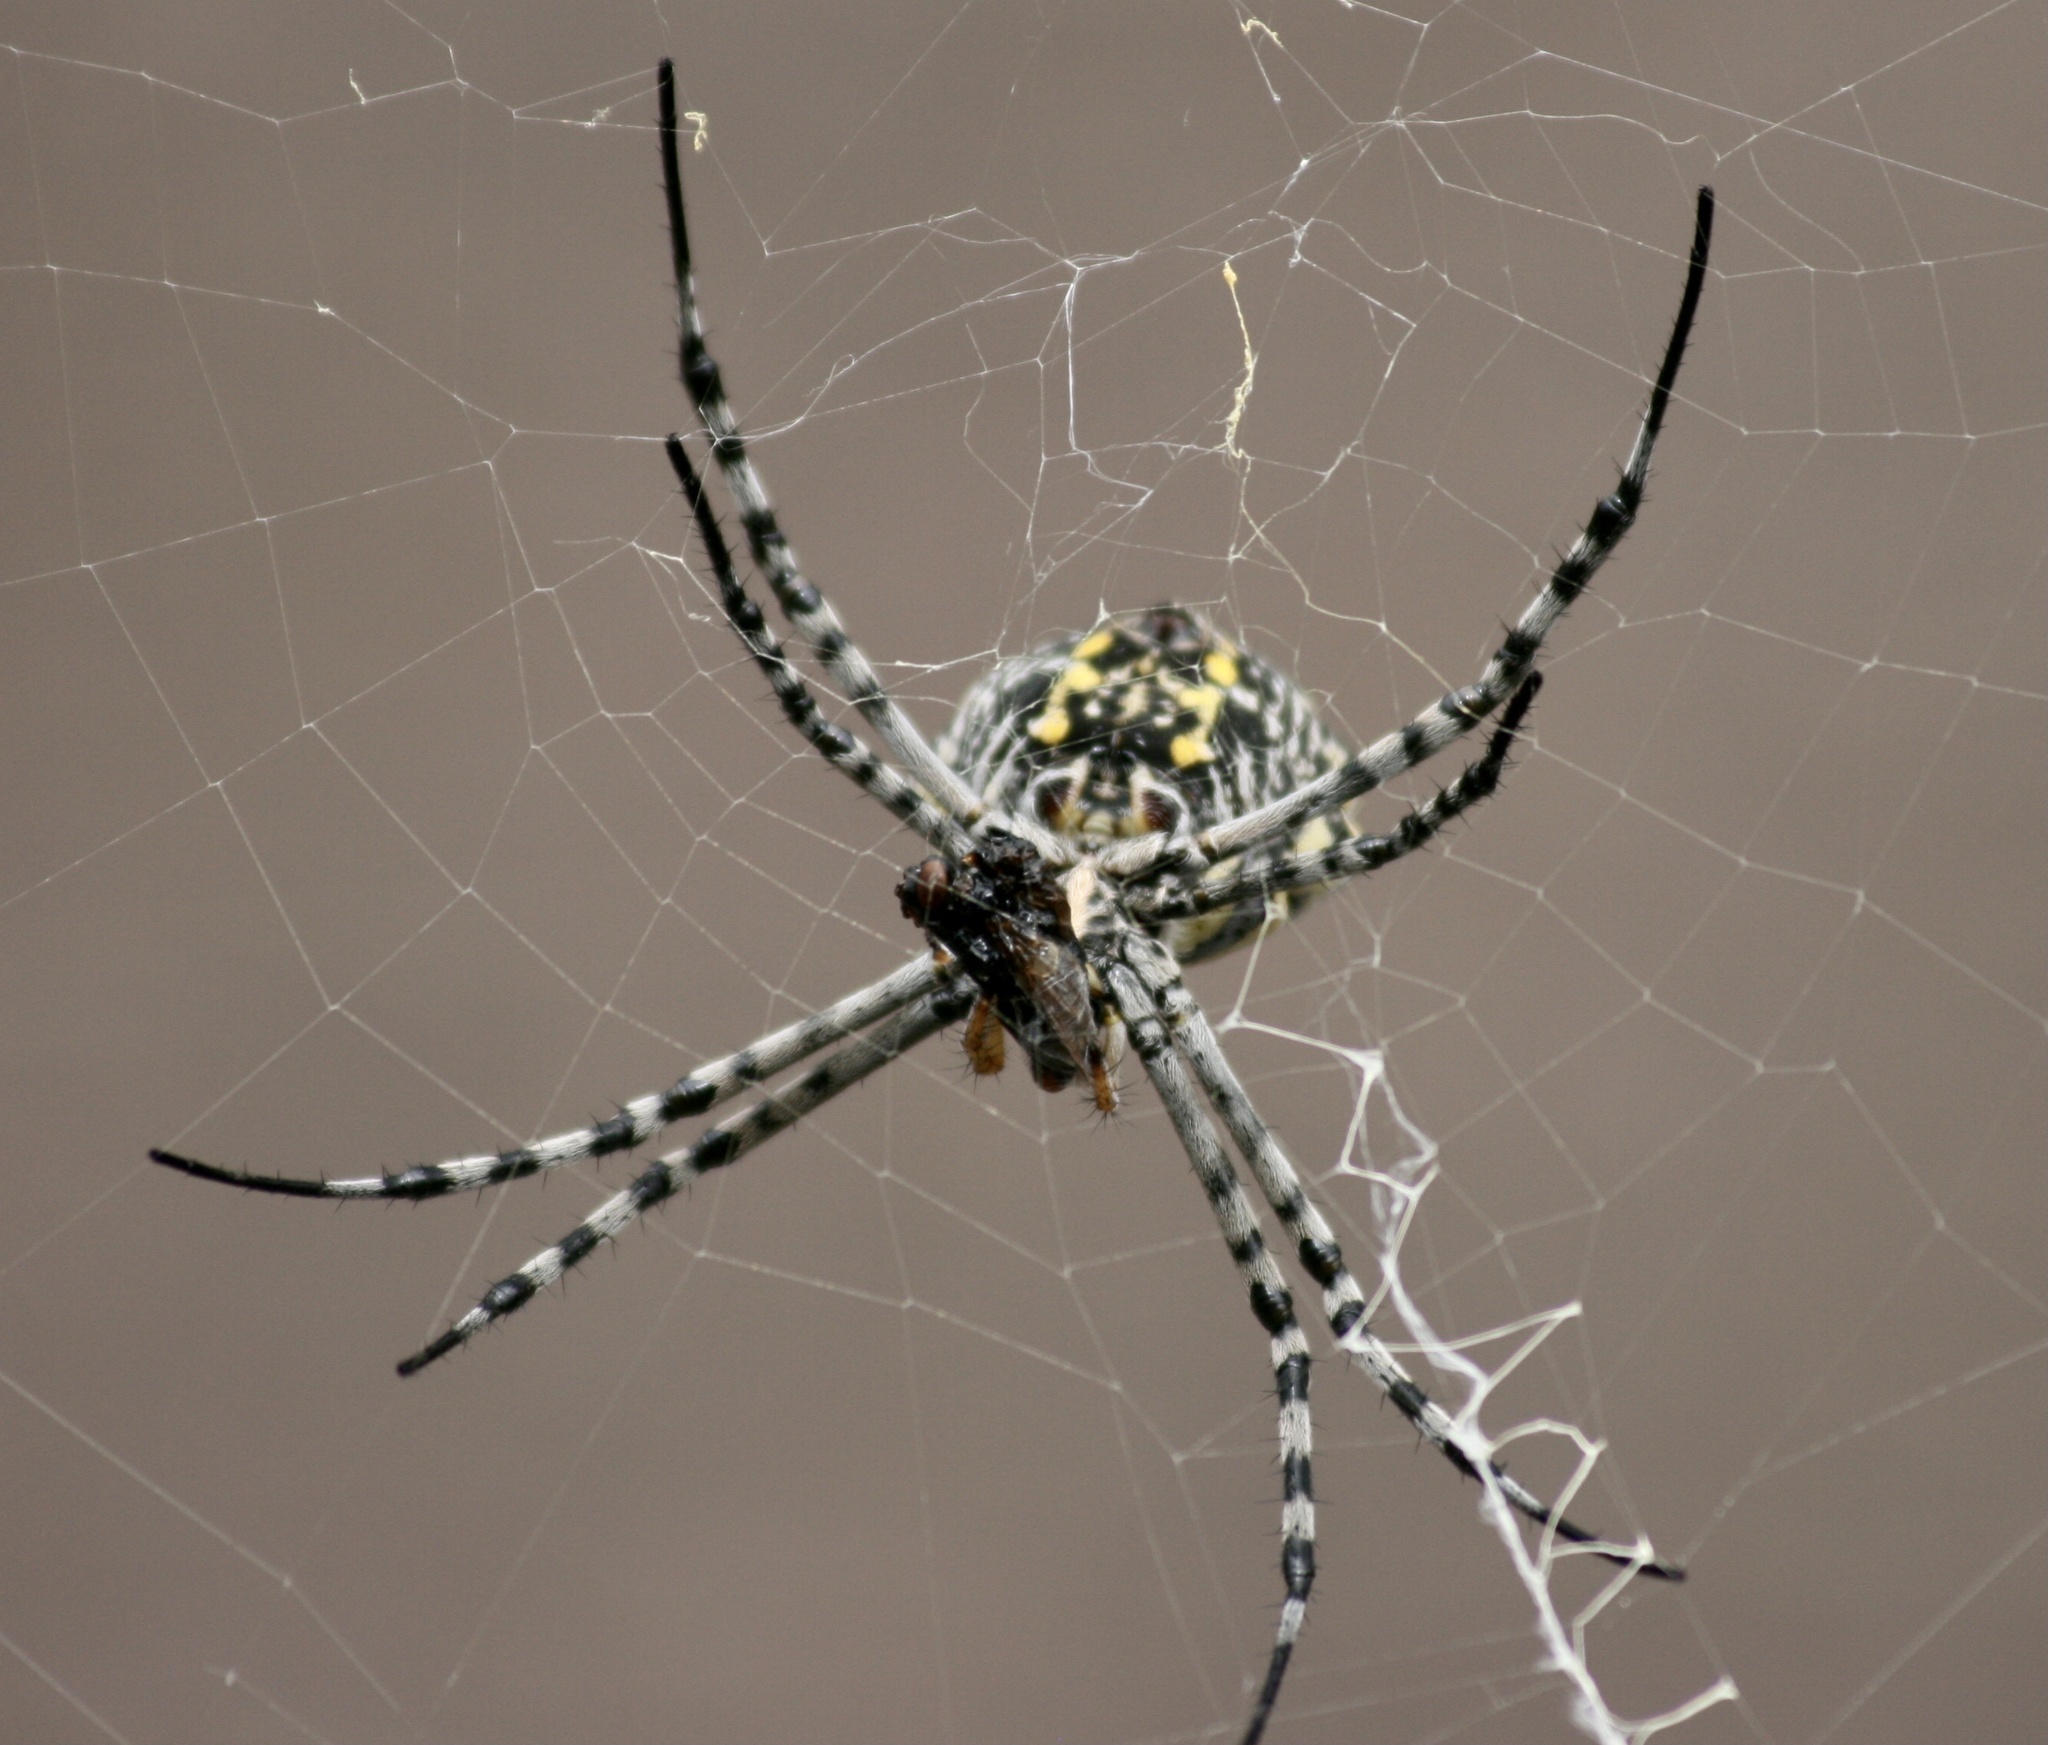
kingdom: Animalia
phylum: Arthropoda
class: Arachnida
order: Araneae
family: Araneidae
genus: Argiope
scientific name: Argiope australis
